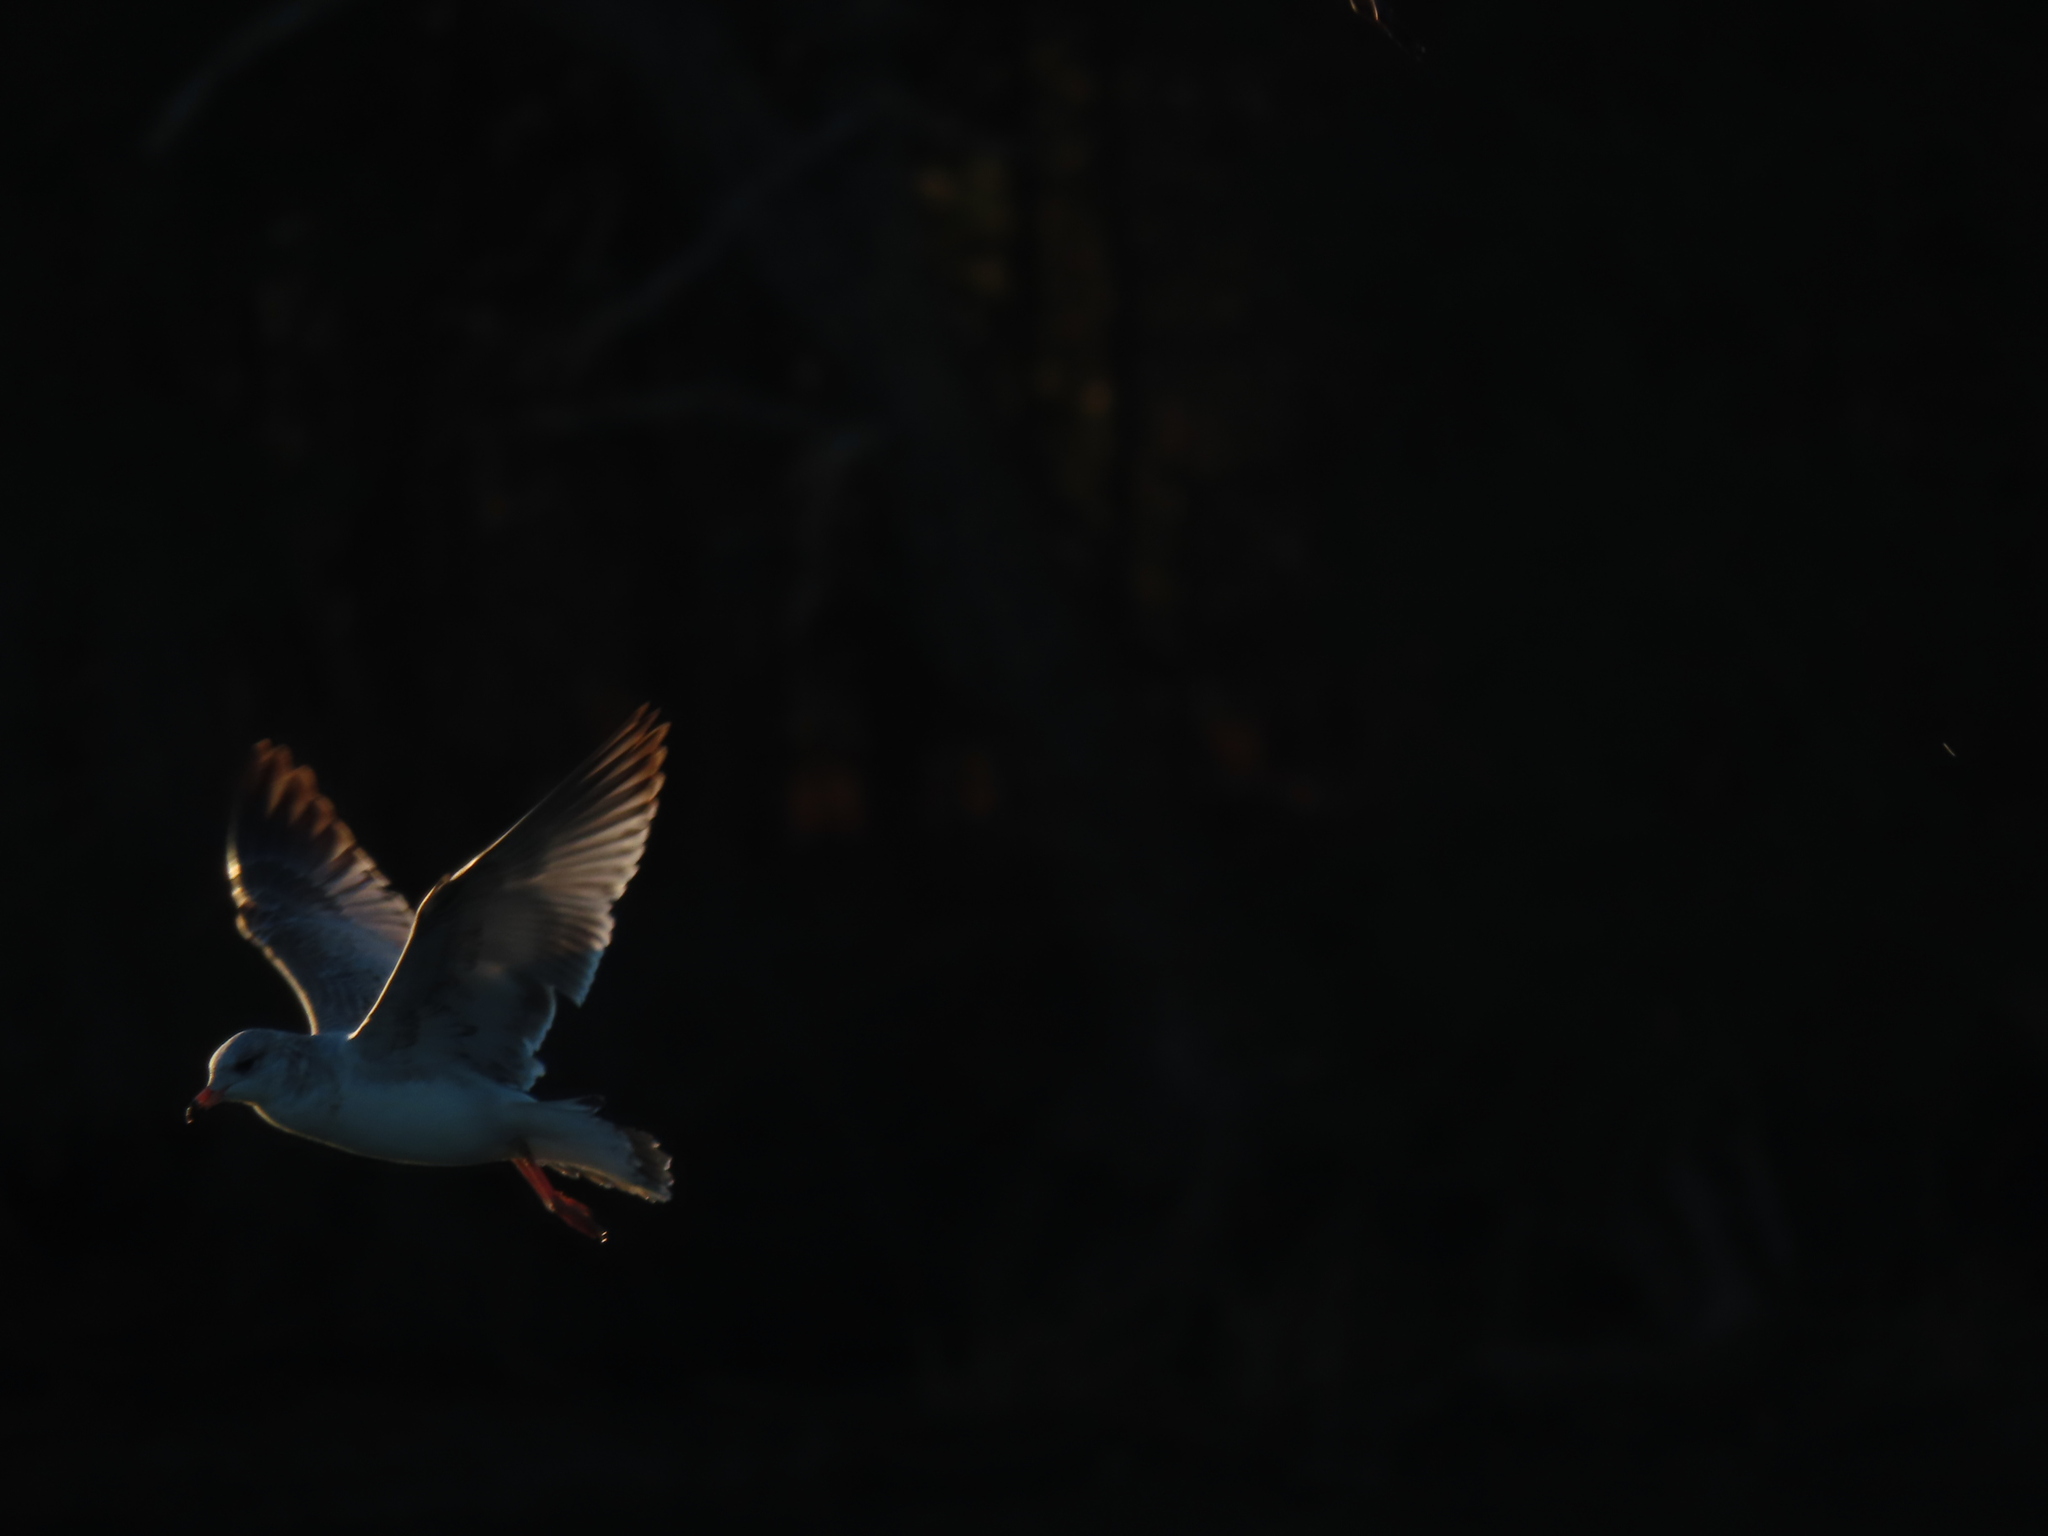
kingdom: Animalia
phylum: Chordata
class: Aves
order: Charadriiformes
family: Laridae
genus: Larus
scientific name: Larus delawarensis
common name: Ring-billed gull
